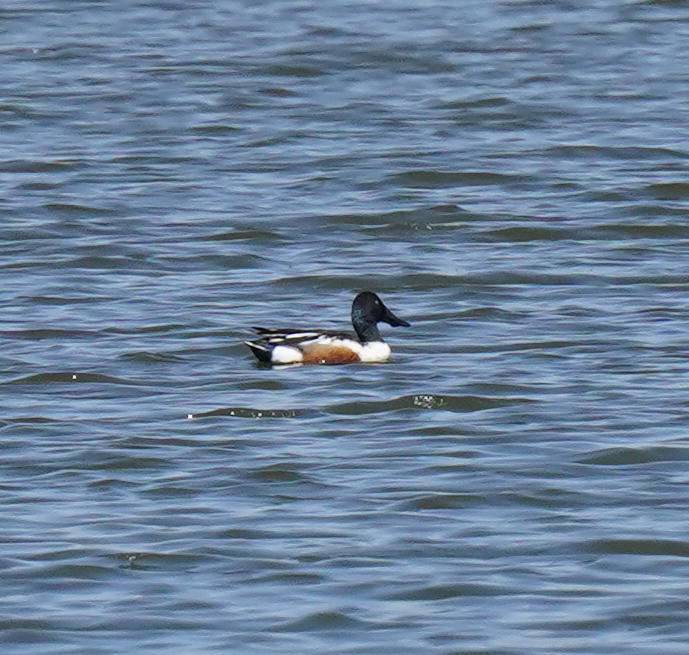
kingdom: Animalia
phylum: Chordata
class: Aves
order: Anseriformes
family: Anatidae
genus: Spatula
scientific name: Spatula clypeata
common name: Northern shoveler
